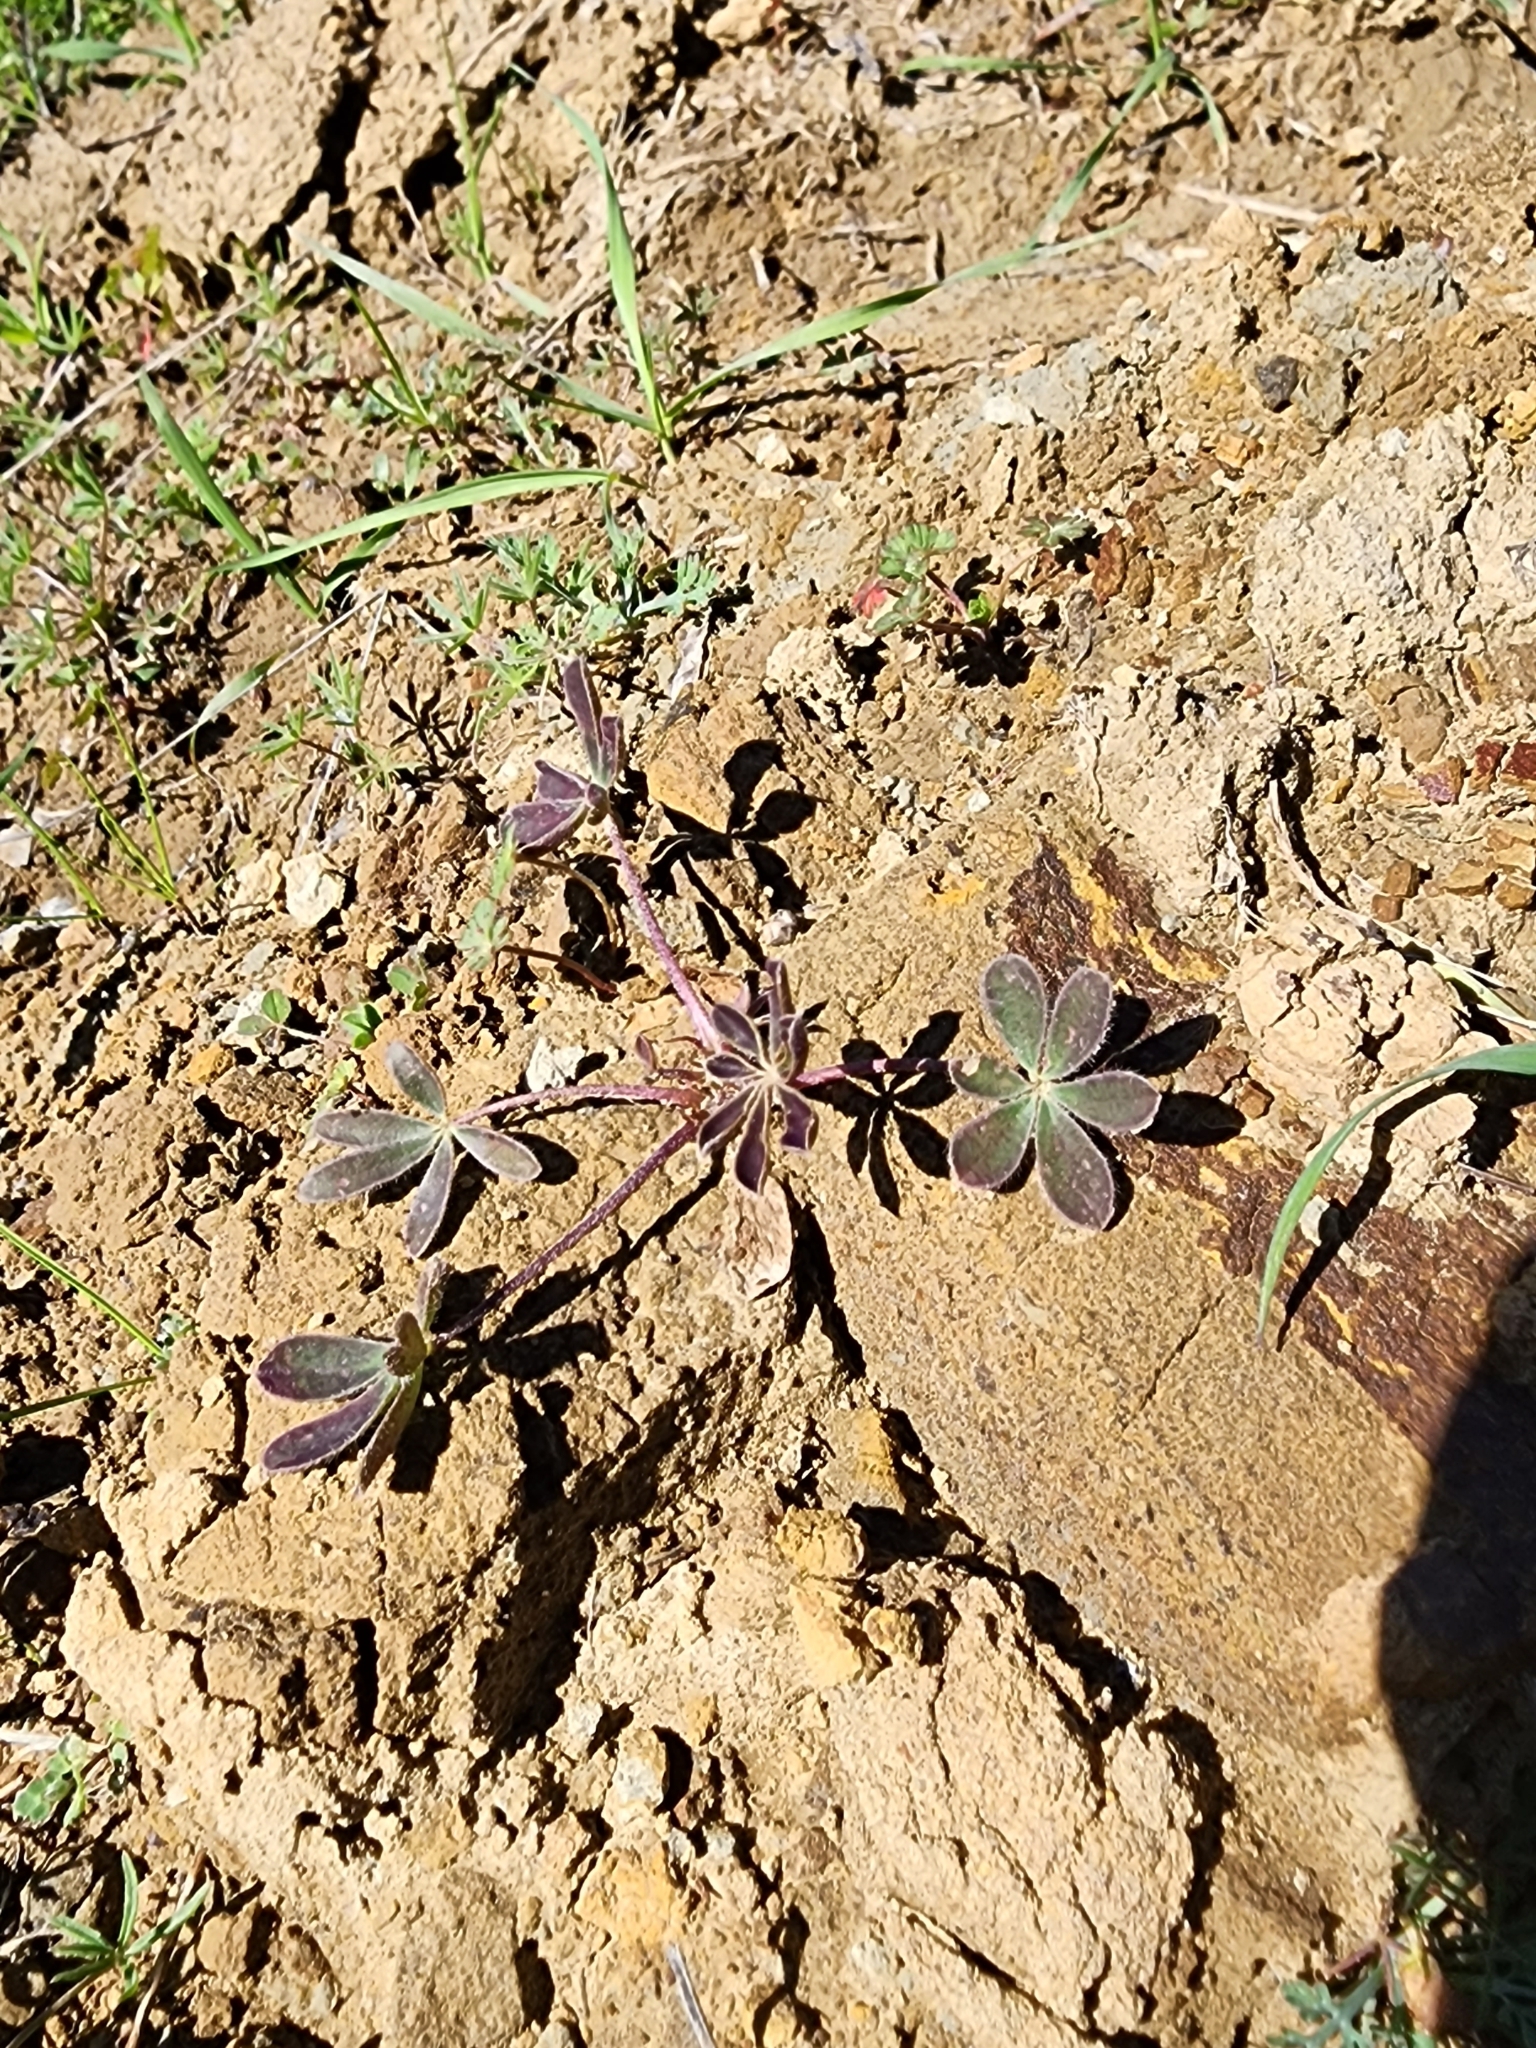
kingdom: Plantae
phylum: Tracheophyta
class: Magnoliopsida
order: Fabales
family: Fabaceae
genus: Lupinus
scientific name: Lupinus succulentus
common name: Arroyo lupine
